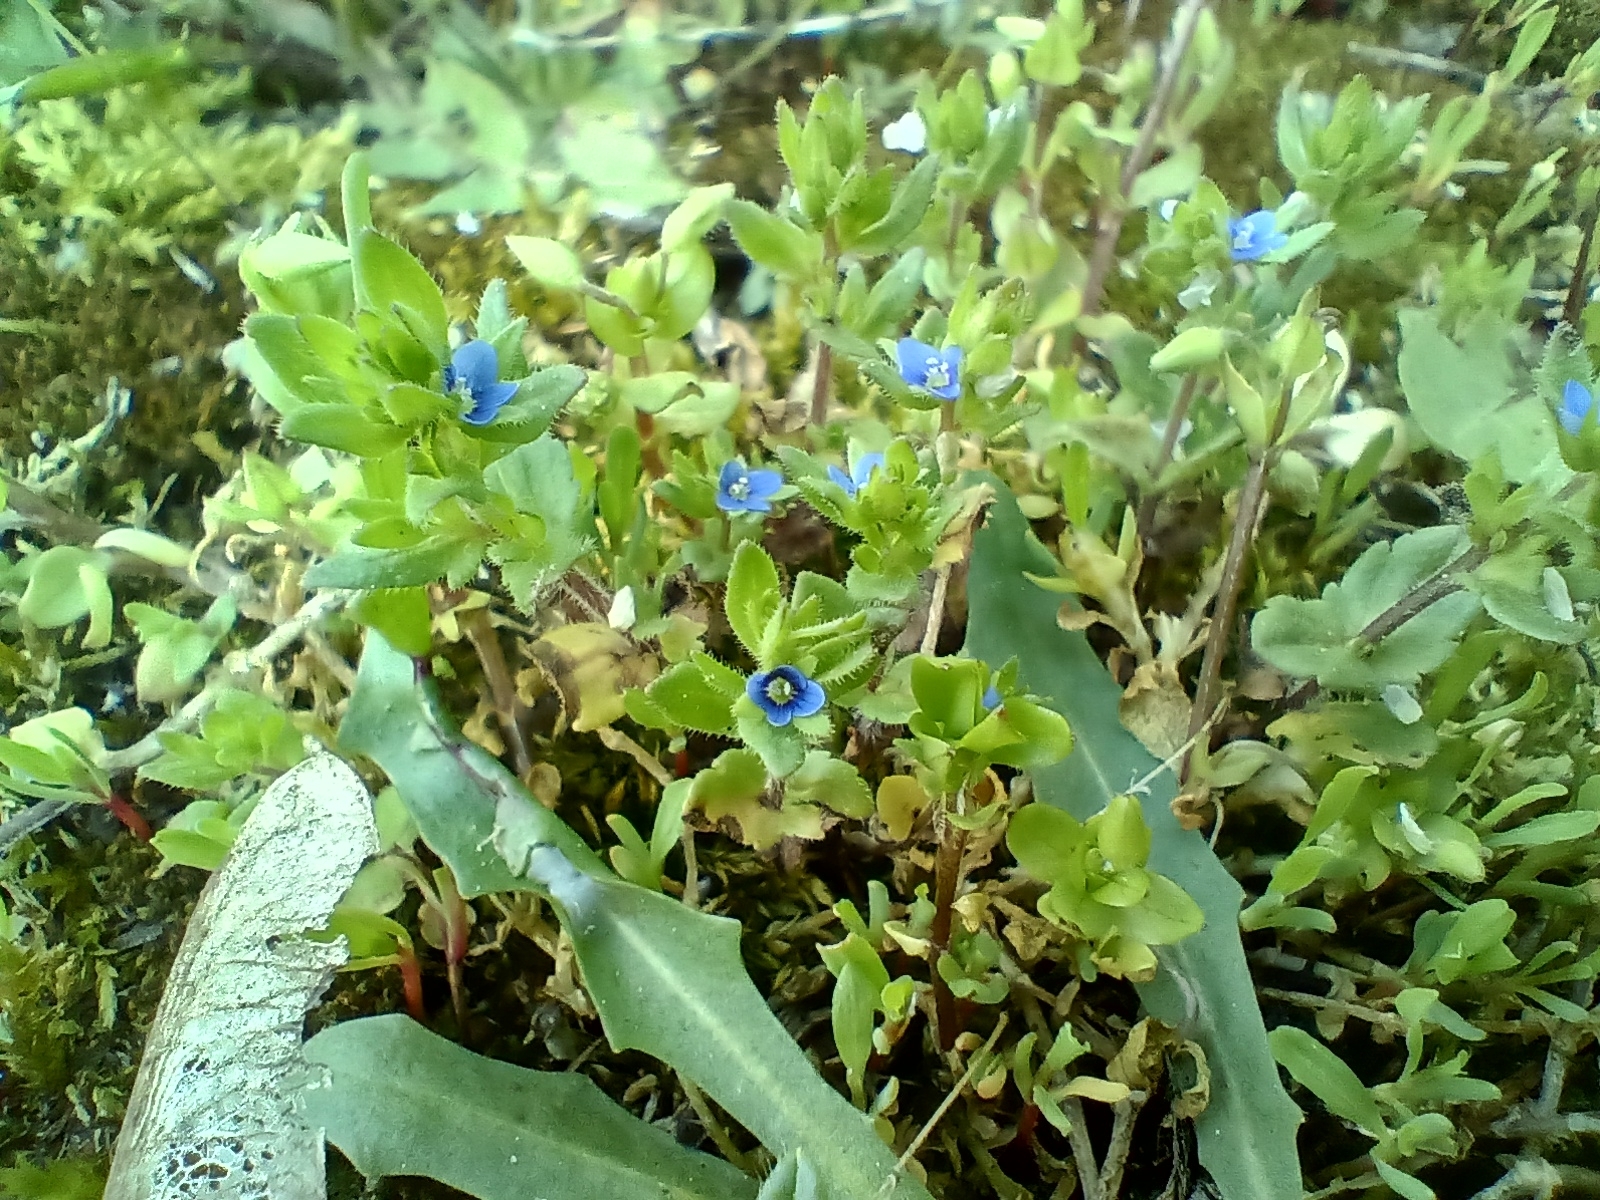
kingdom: Plantae
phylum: Tracheophyta
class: Magnoliopsida
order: Lamiales
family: Plantaginaceae
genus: Veronica
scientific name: Veronica arvensis
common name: Corn speedwell
